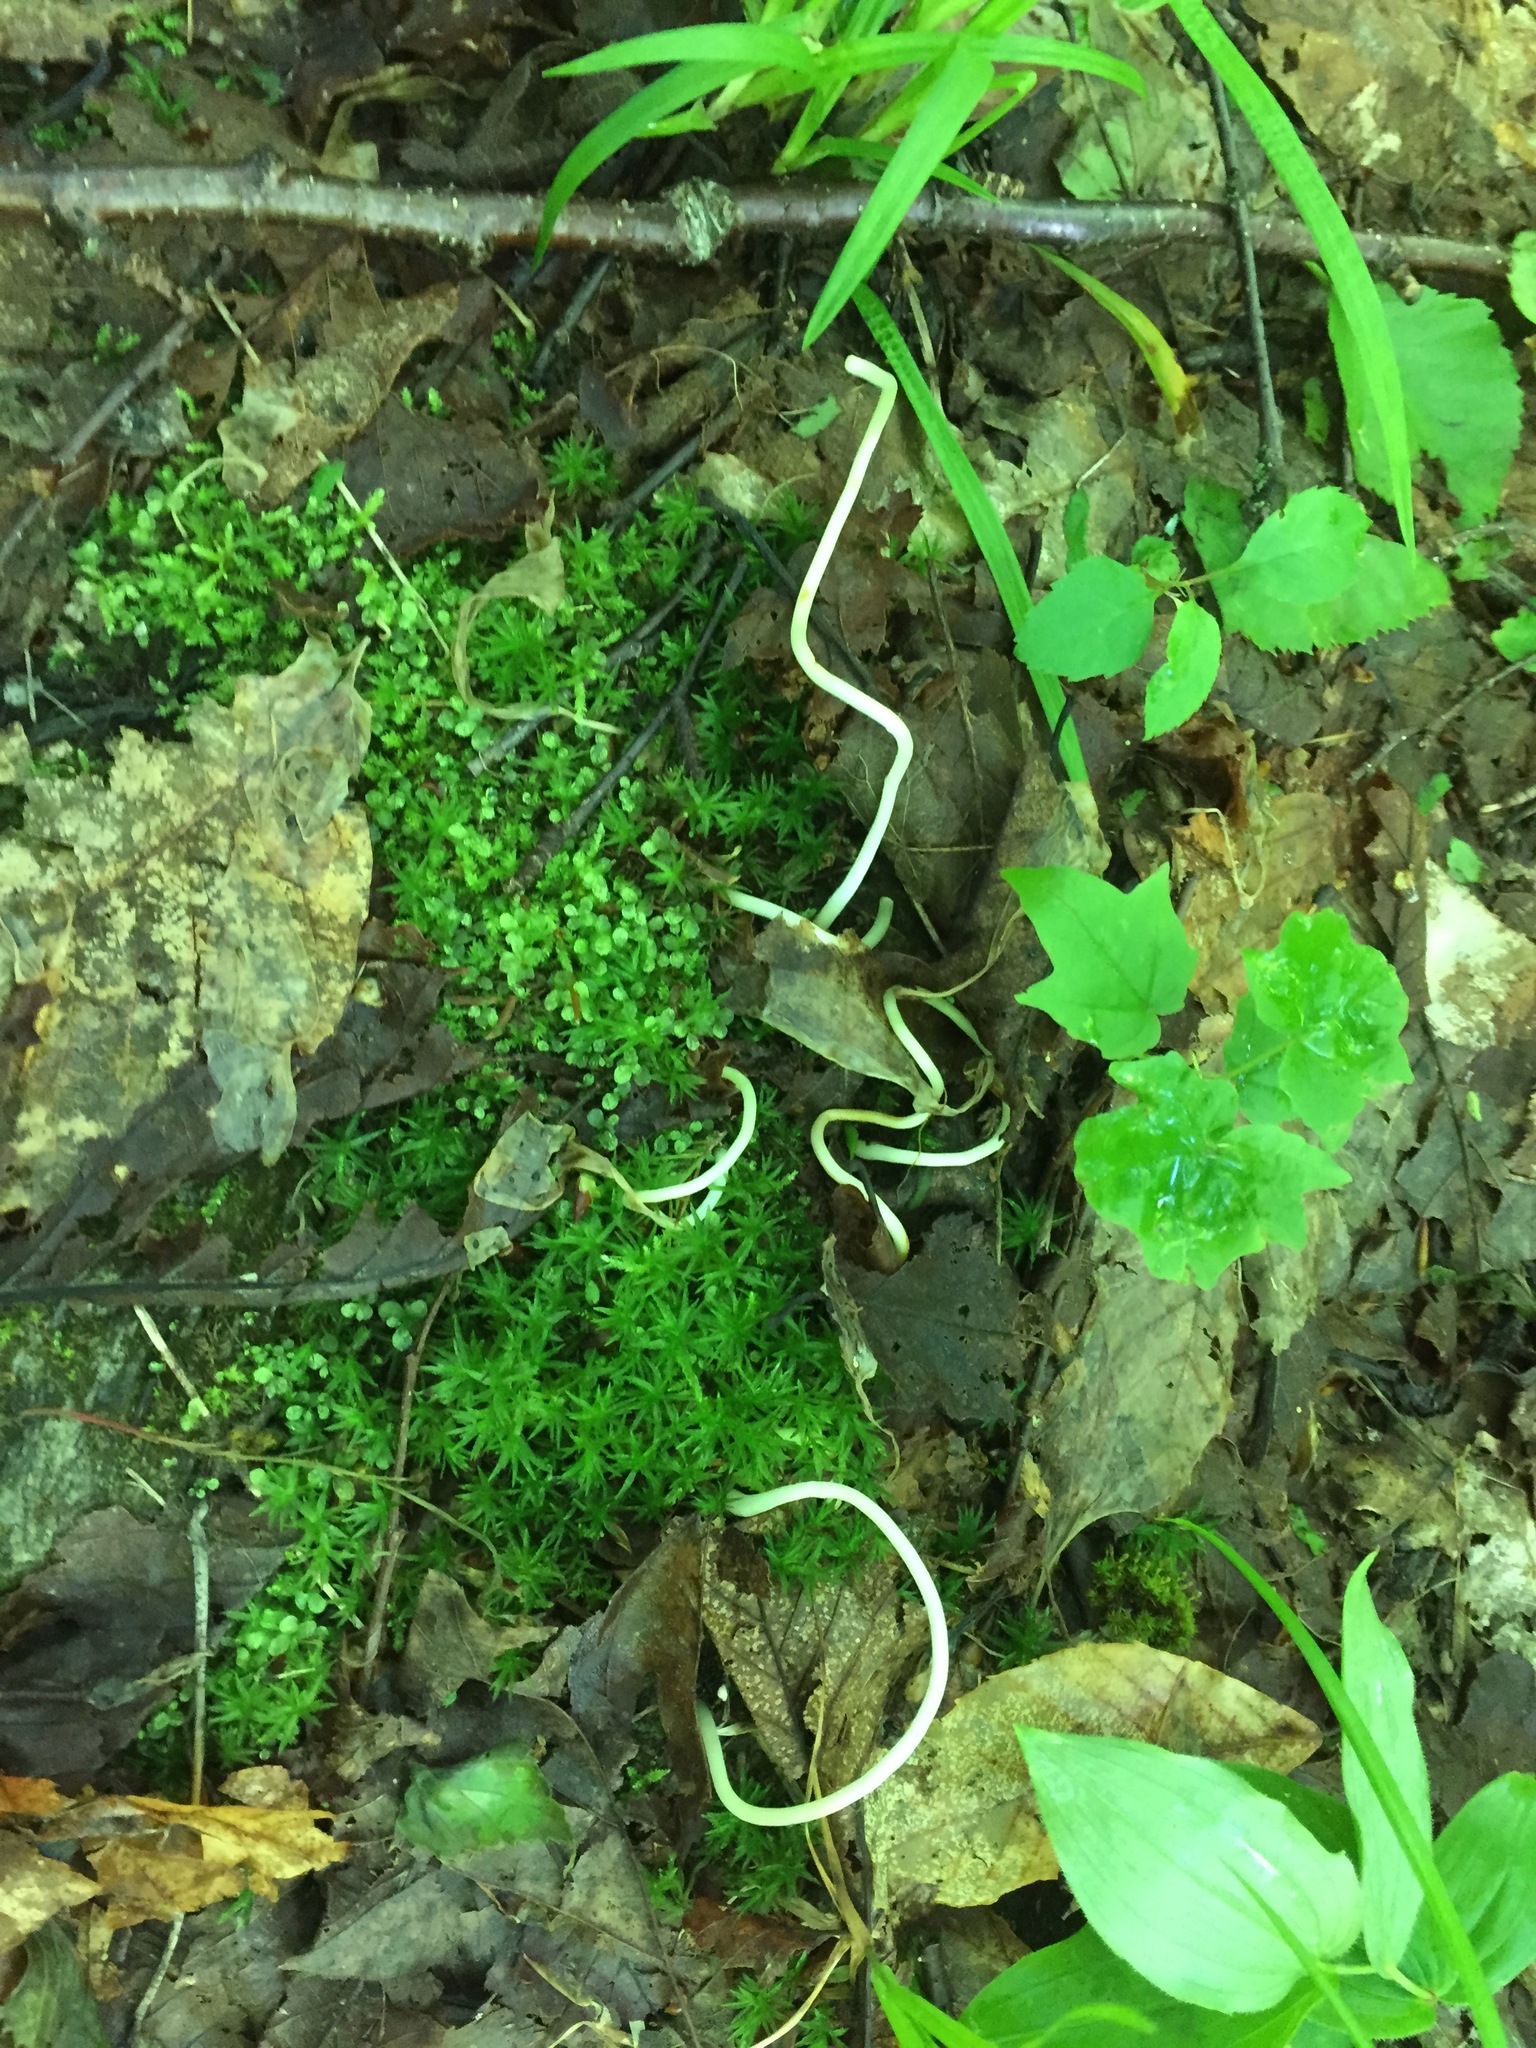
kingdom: Plantae
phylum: Tracheophyta
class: Liliopsida
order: Liliales
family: Liliaceae
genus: Erythronium
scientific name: Erythronium americanum
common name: Yellow adder's-tongue
